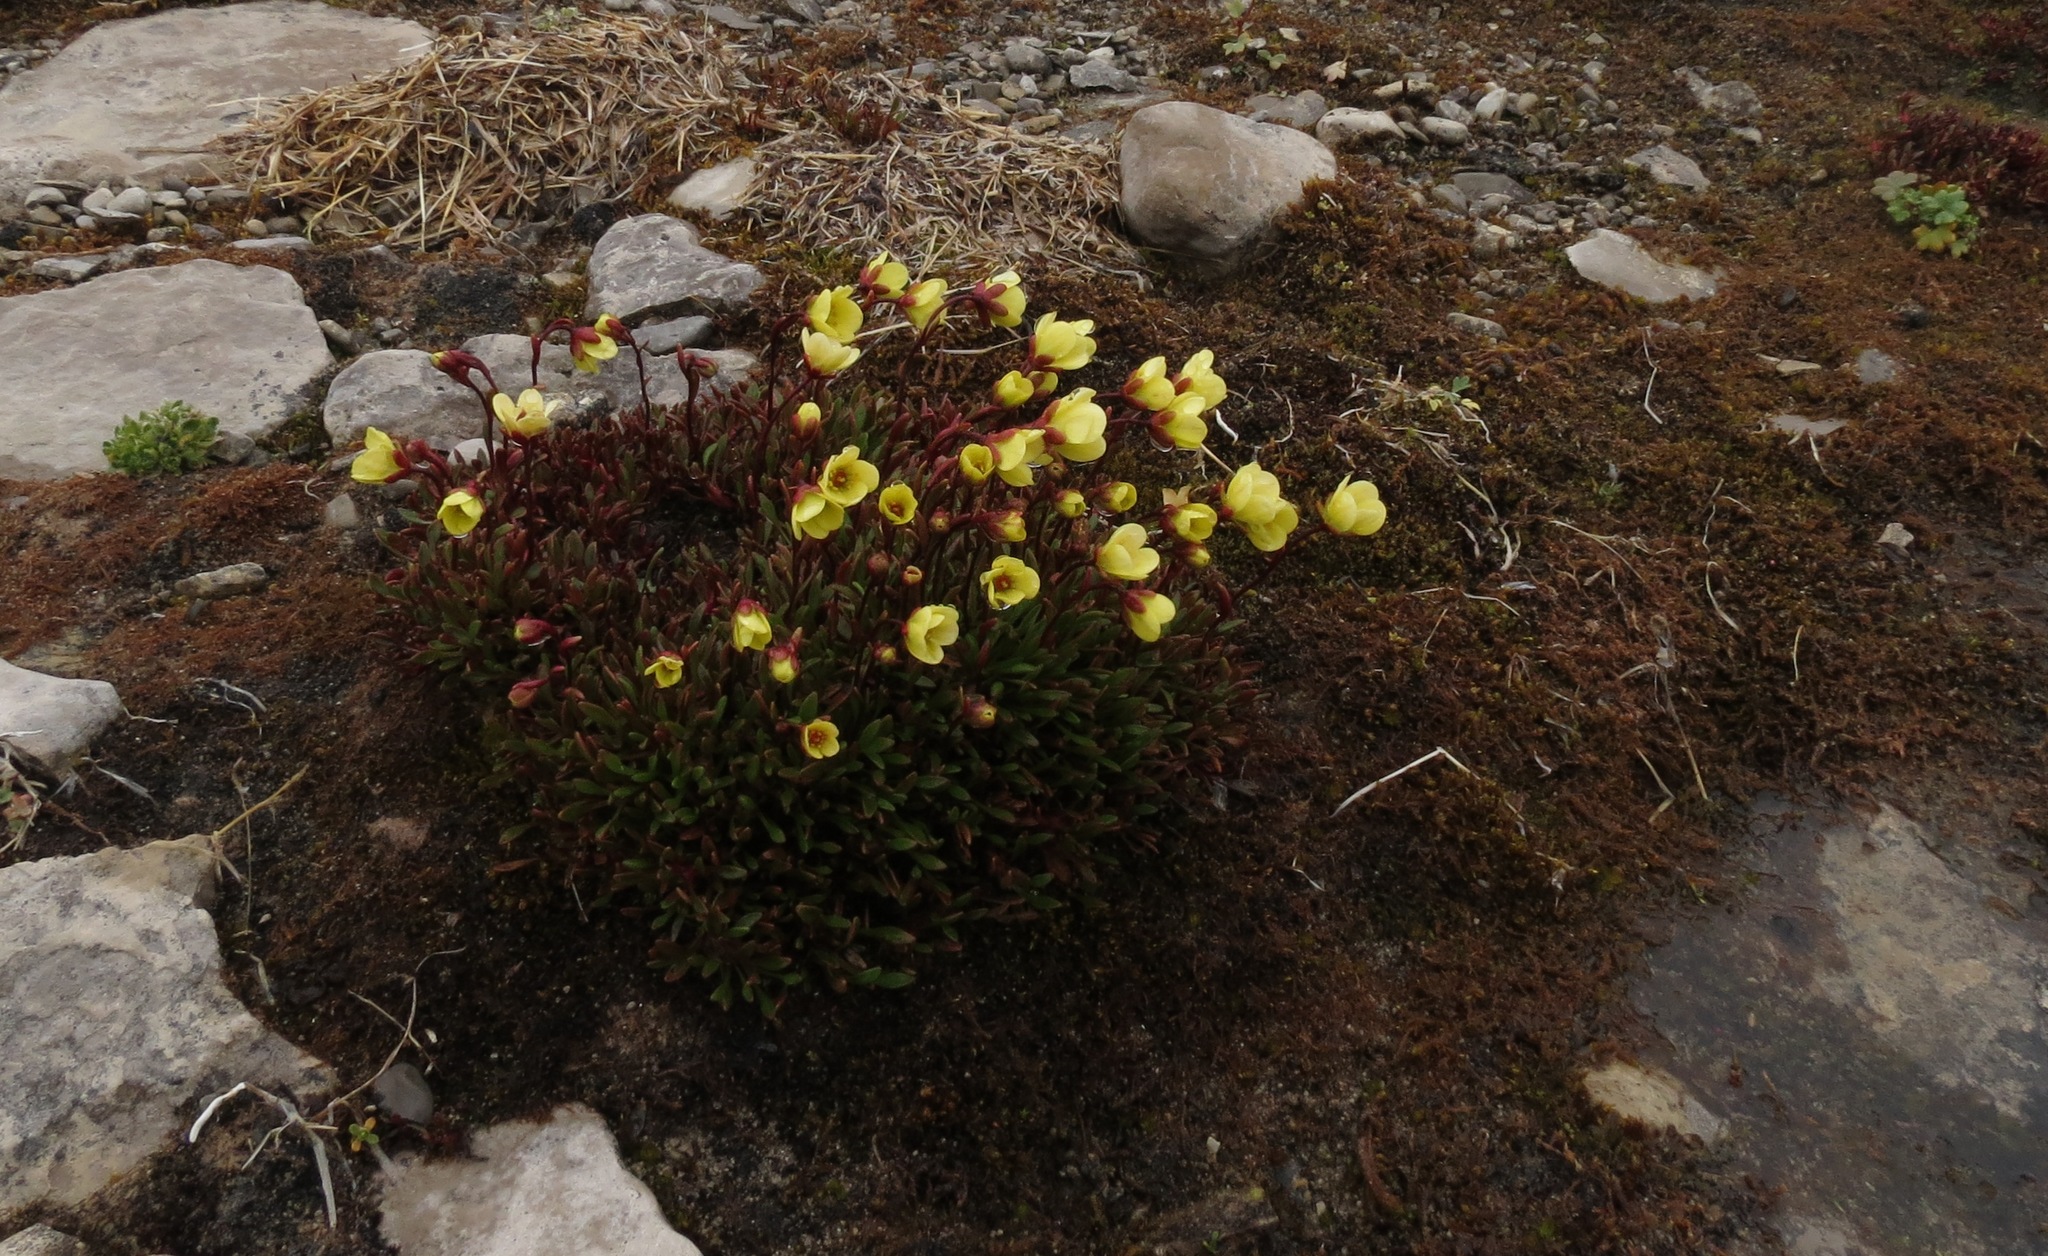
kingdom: Plantae
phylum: Tracheophyta
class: Magnoliopsida
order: Saxifragales
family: Saxifragaceae
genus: Saxifraga
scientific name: Saxifraga hirculus
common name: Yellow marsh saxifrage
